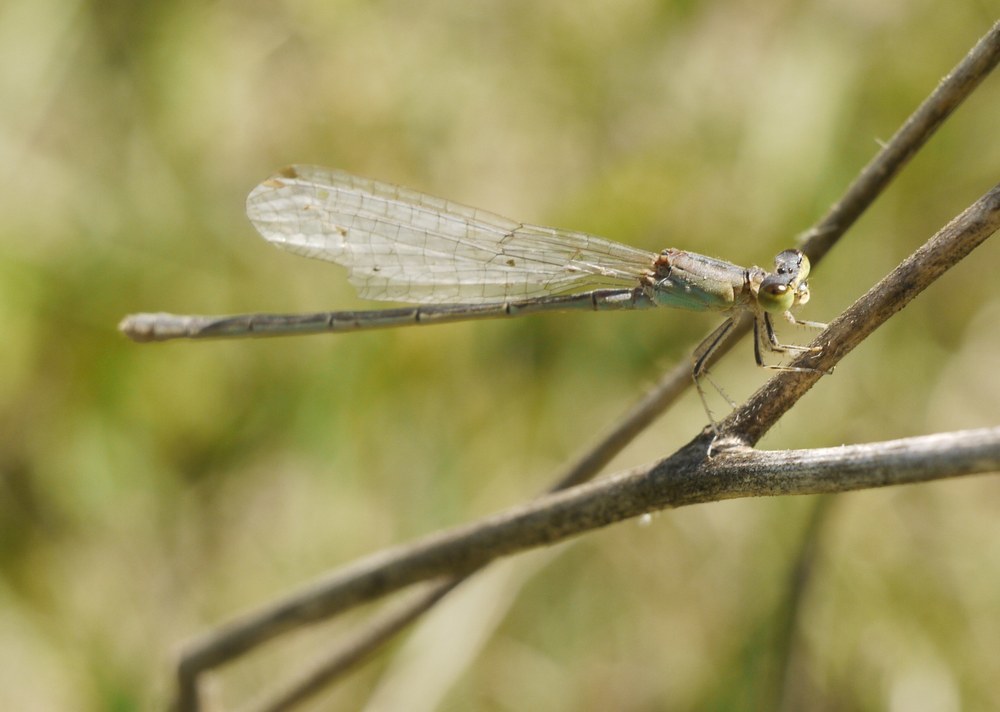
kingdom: Animalia
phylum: Arthropoda
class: Insecta
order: Odonata
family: Coenagrionidae
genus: Ischnura
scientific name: Ischnura pumilio
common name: Scarce blue-tailed damselfly
